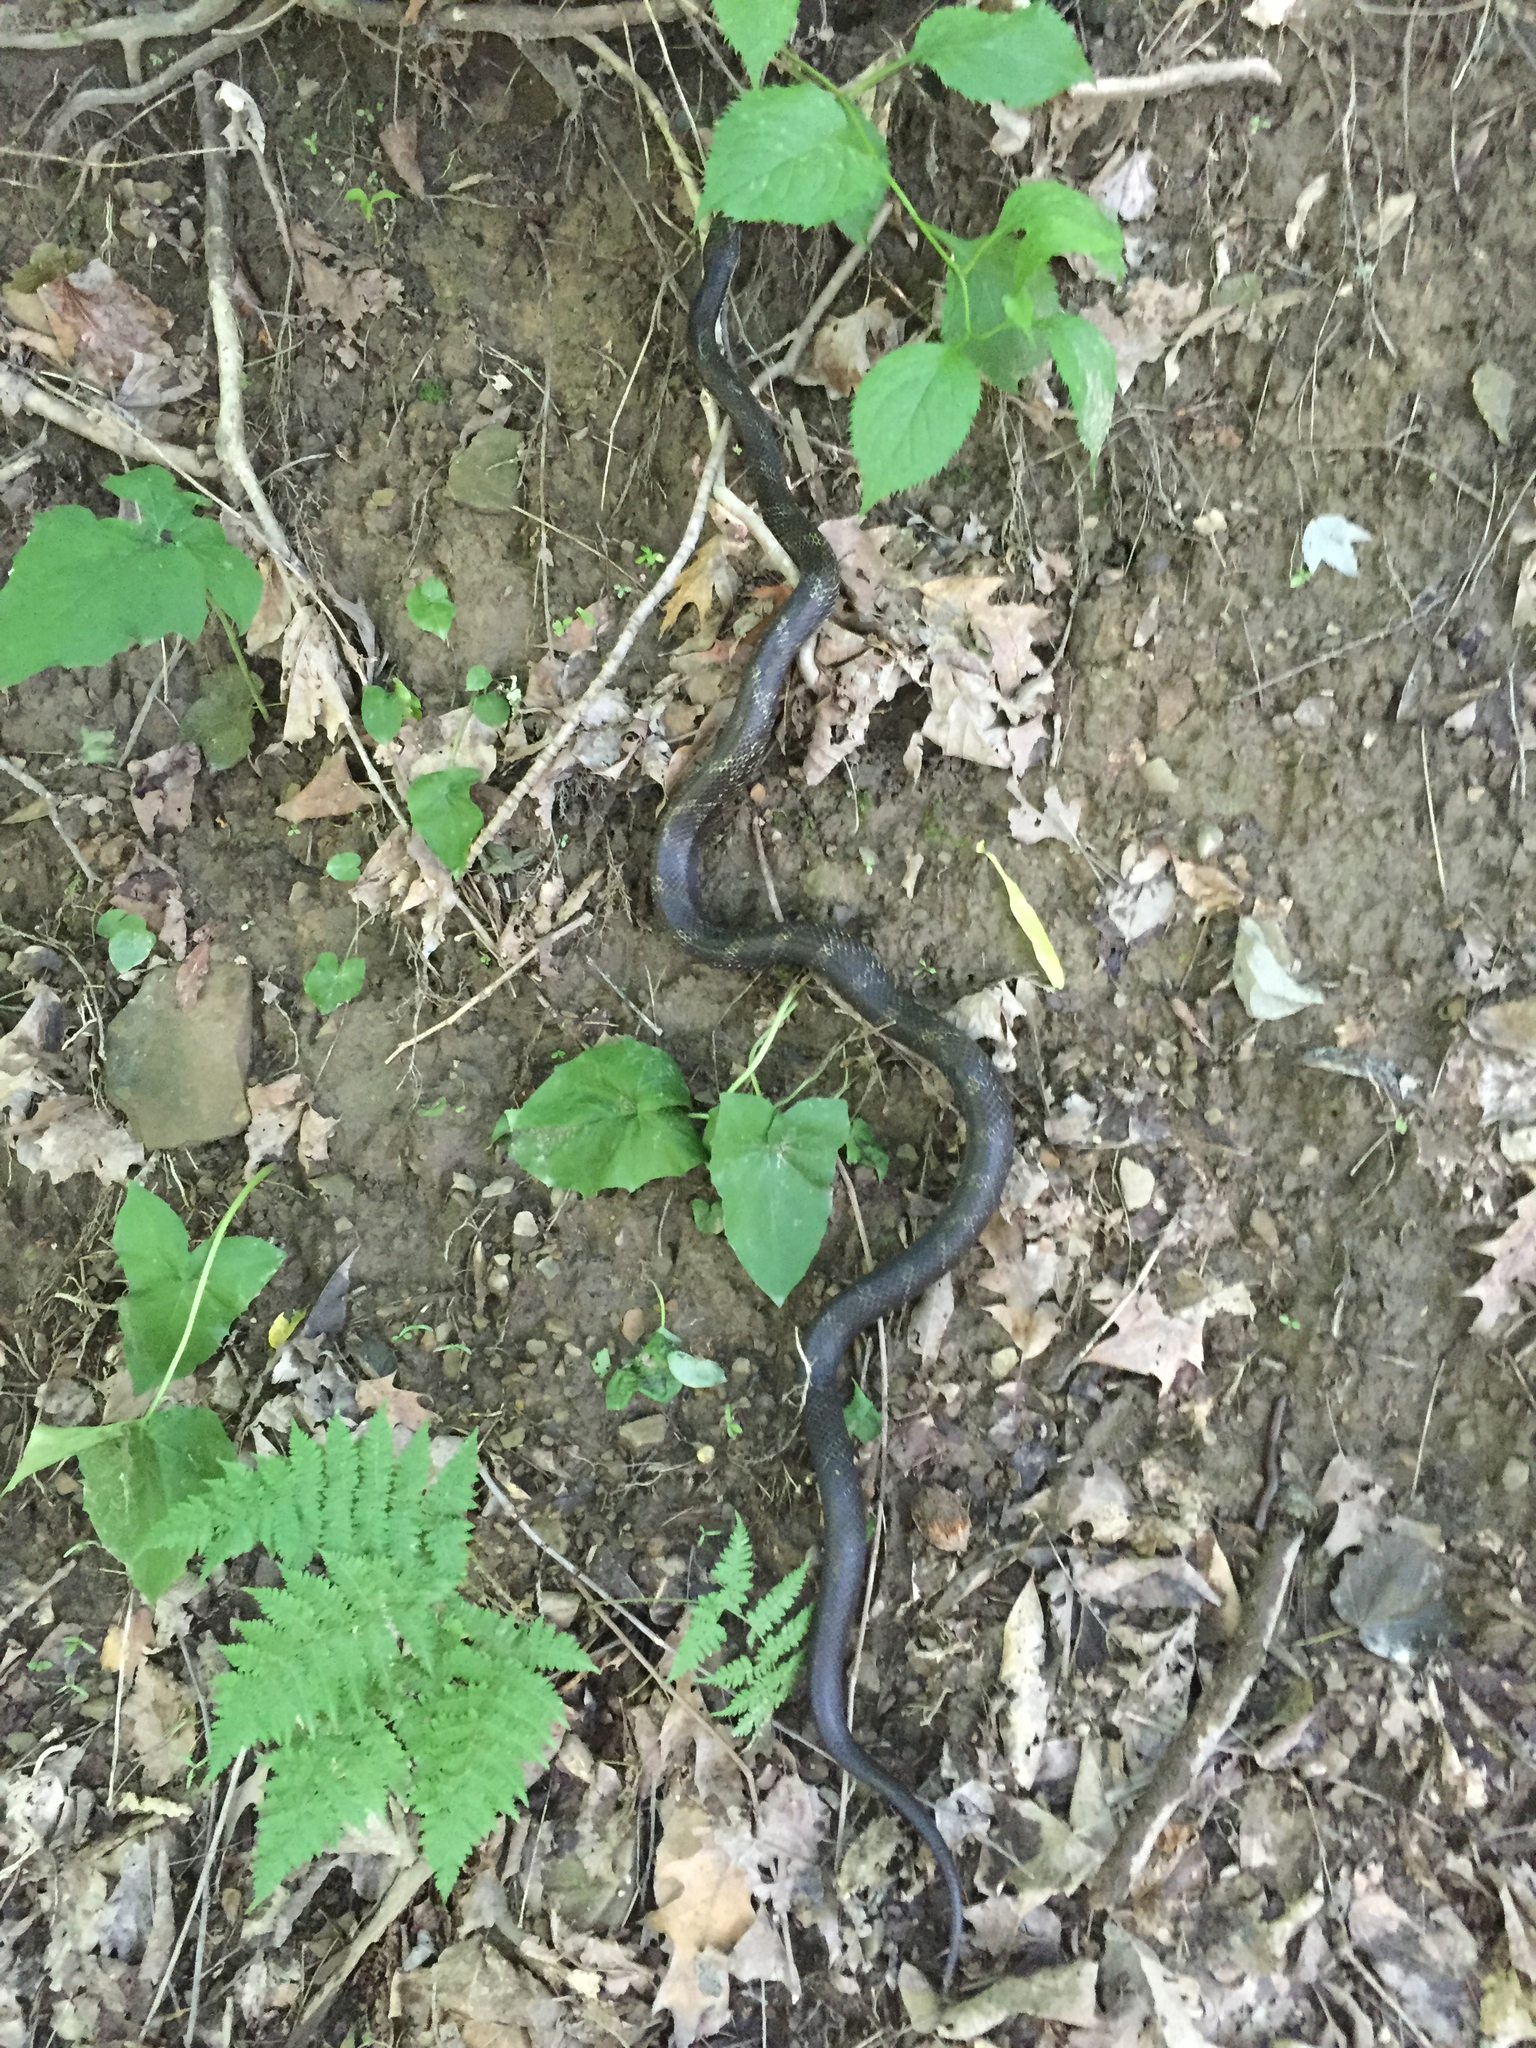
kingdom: Animalia
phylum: Chordata
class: Squamata
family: Colubridae
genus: Pantherophis
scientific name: Pantherophis spiloides
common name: Gray rat snake
